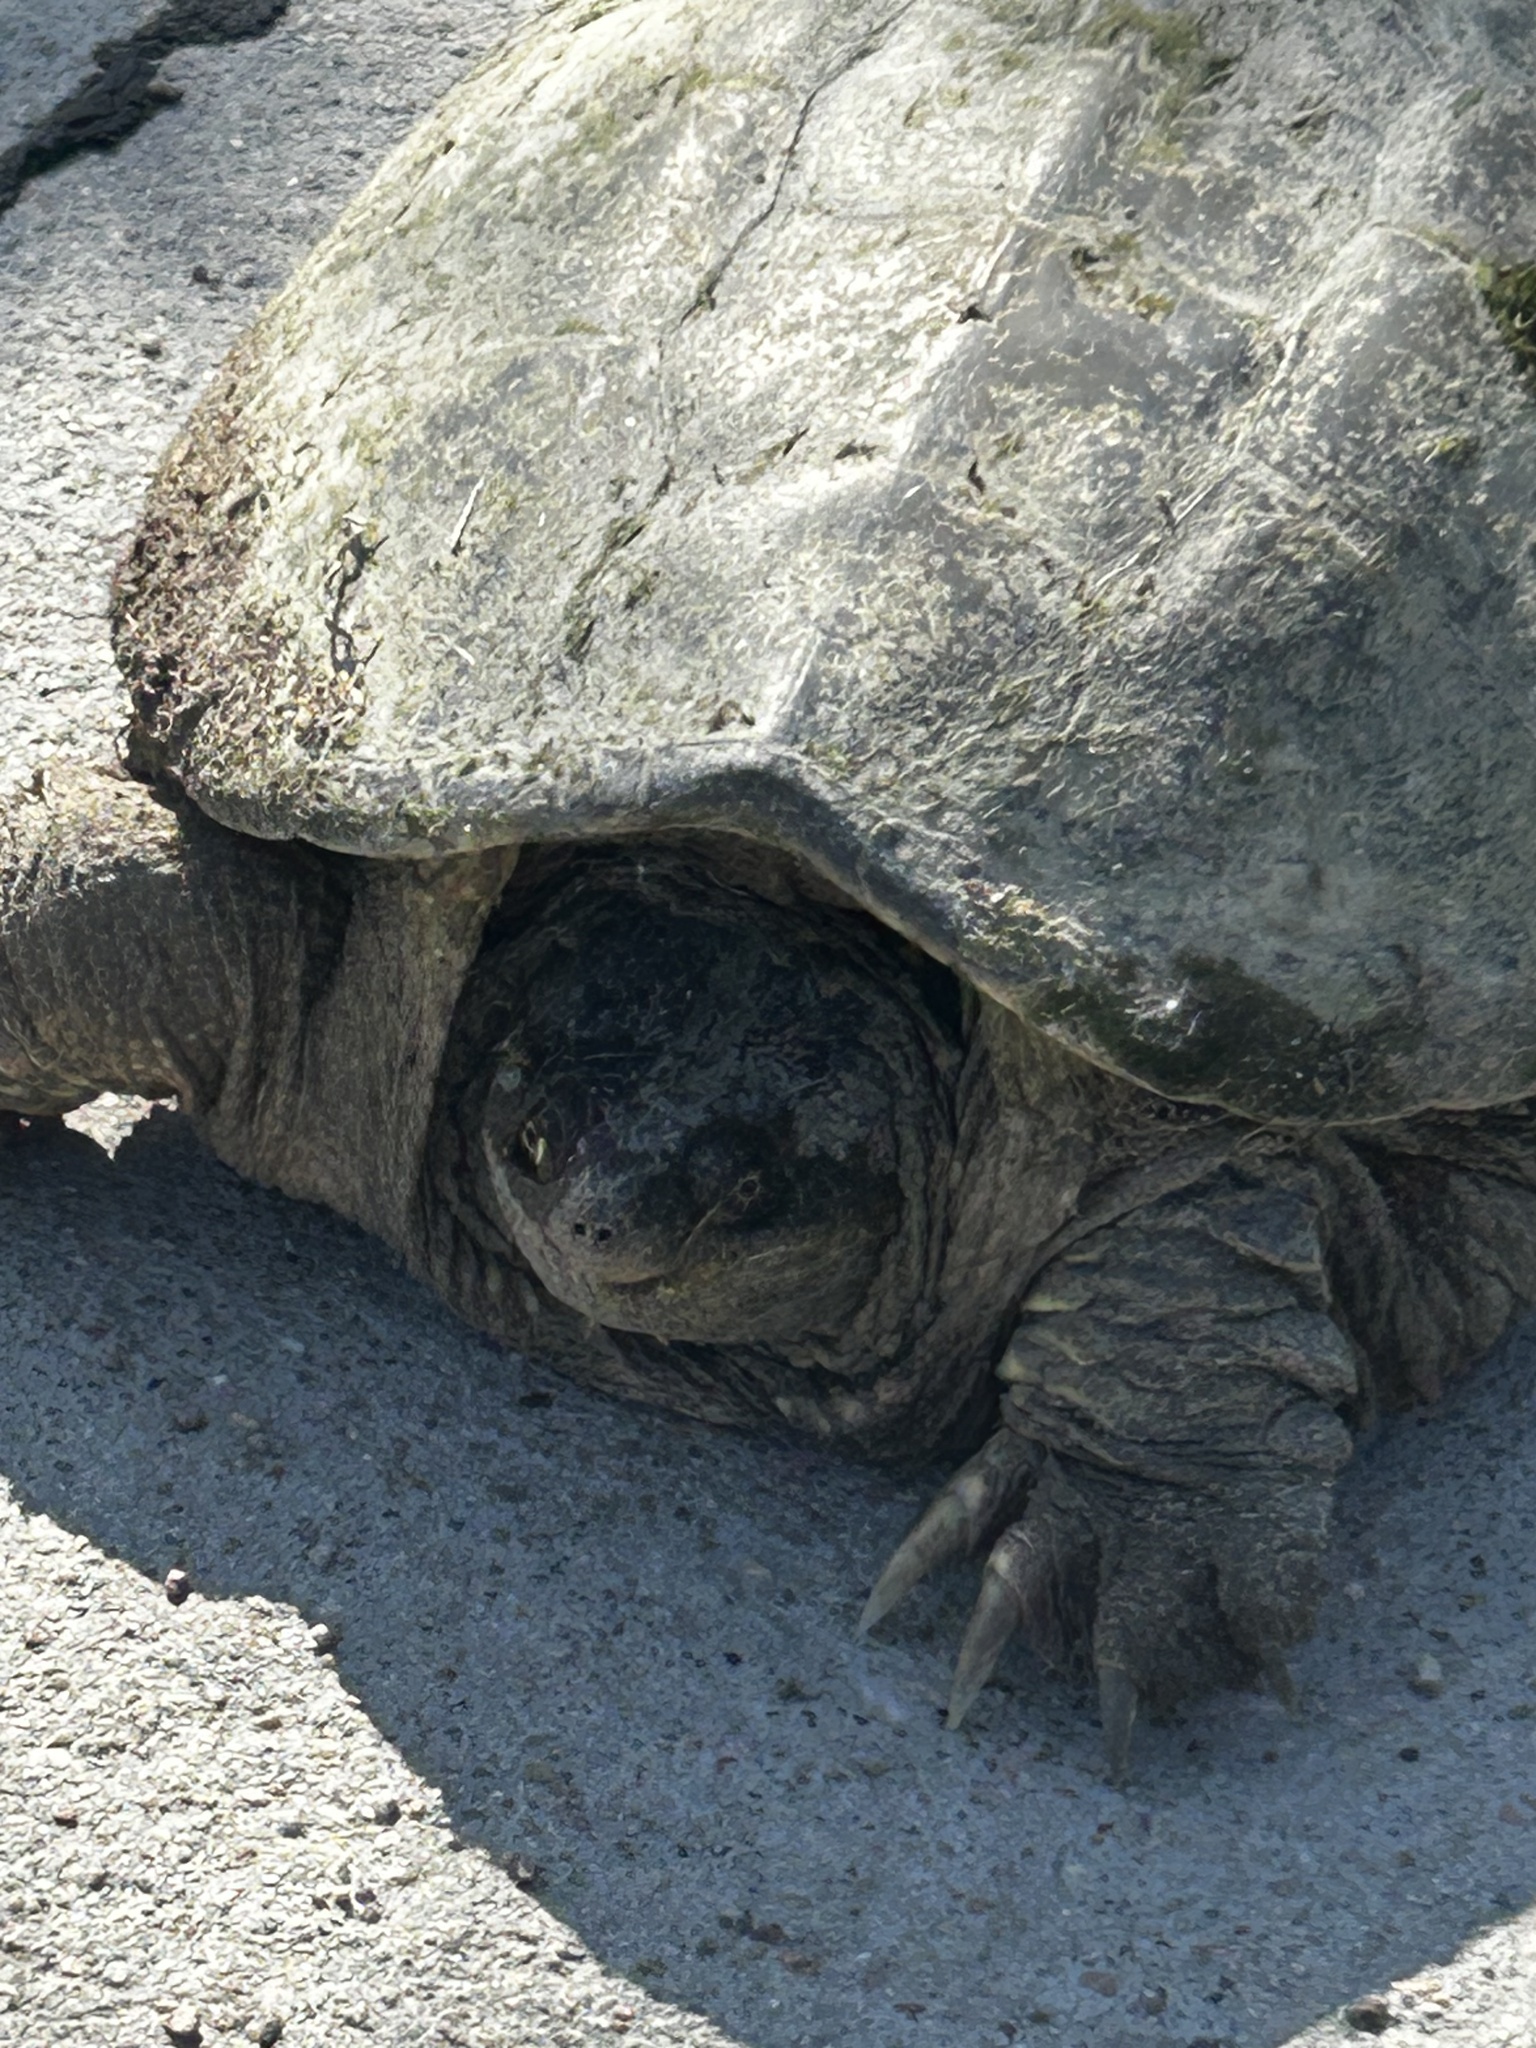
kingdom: Animalia
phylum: Chordata
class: Testudines
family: Chelydridae
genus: Chelydra
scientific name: Chelydra serpentina
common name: Common snapping turtle
